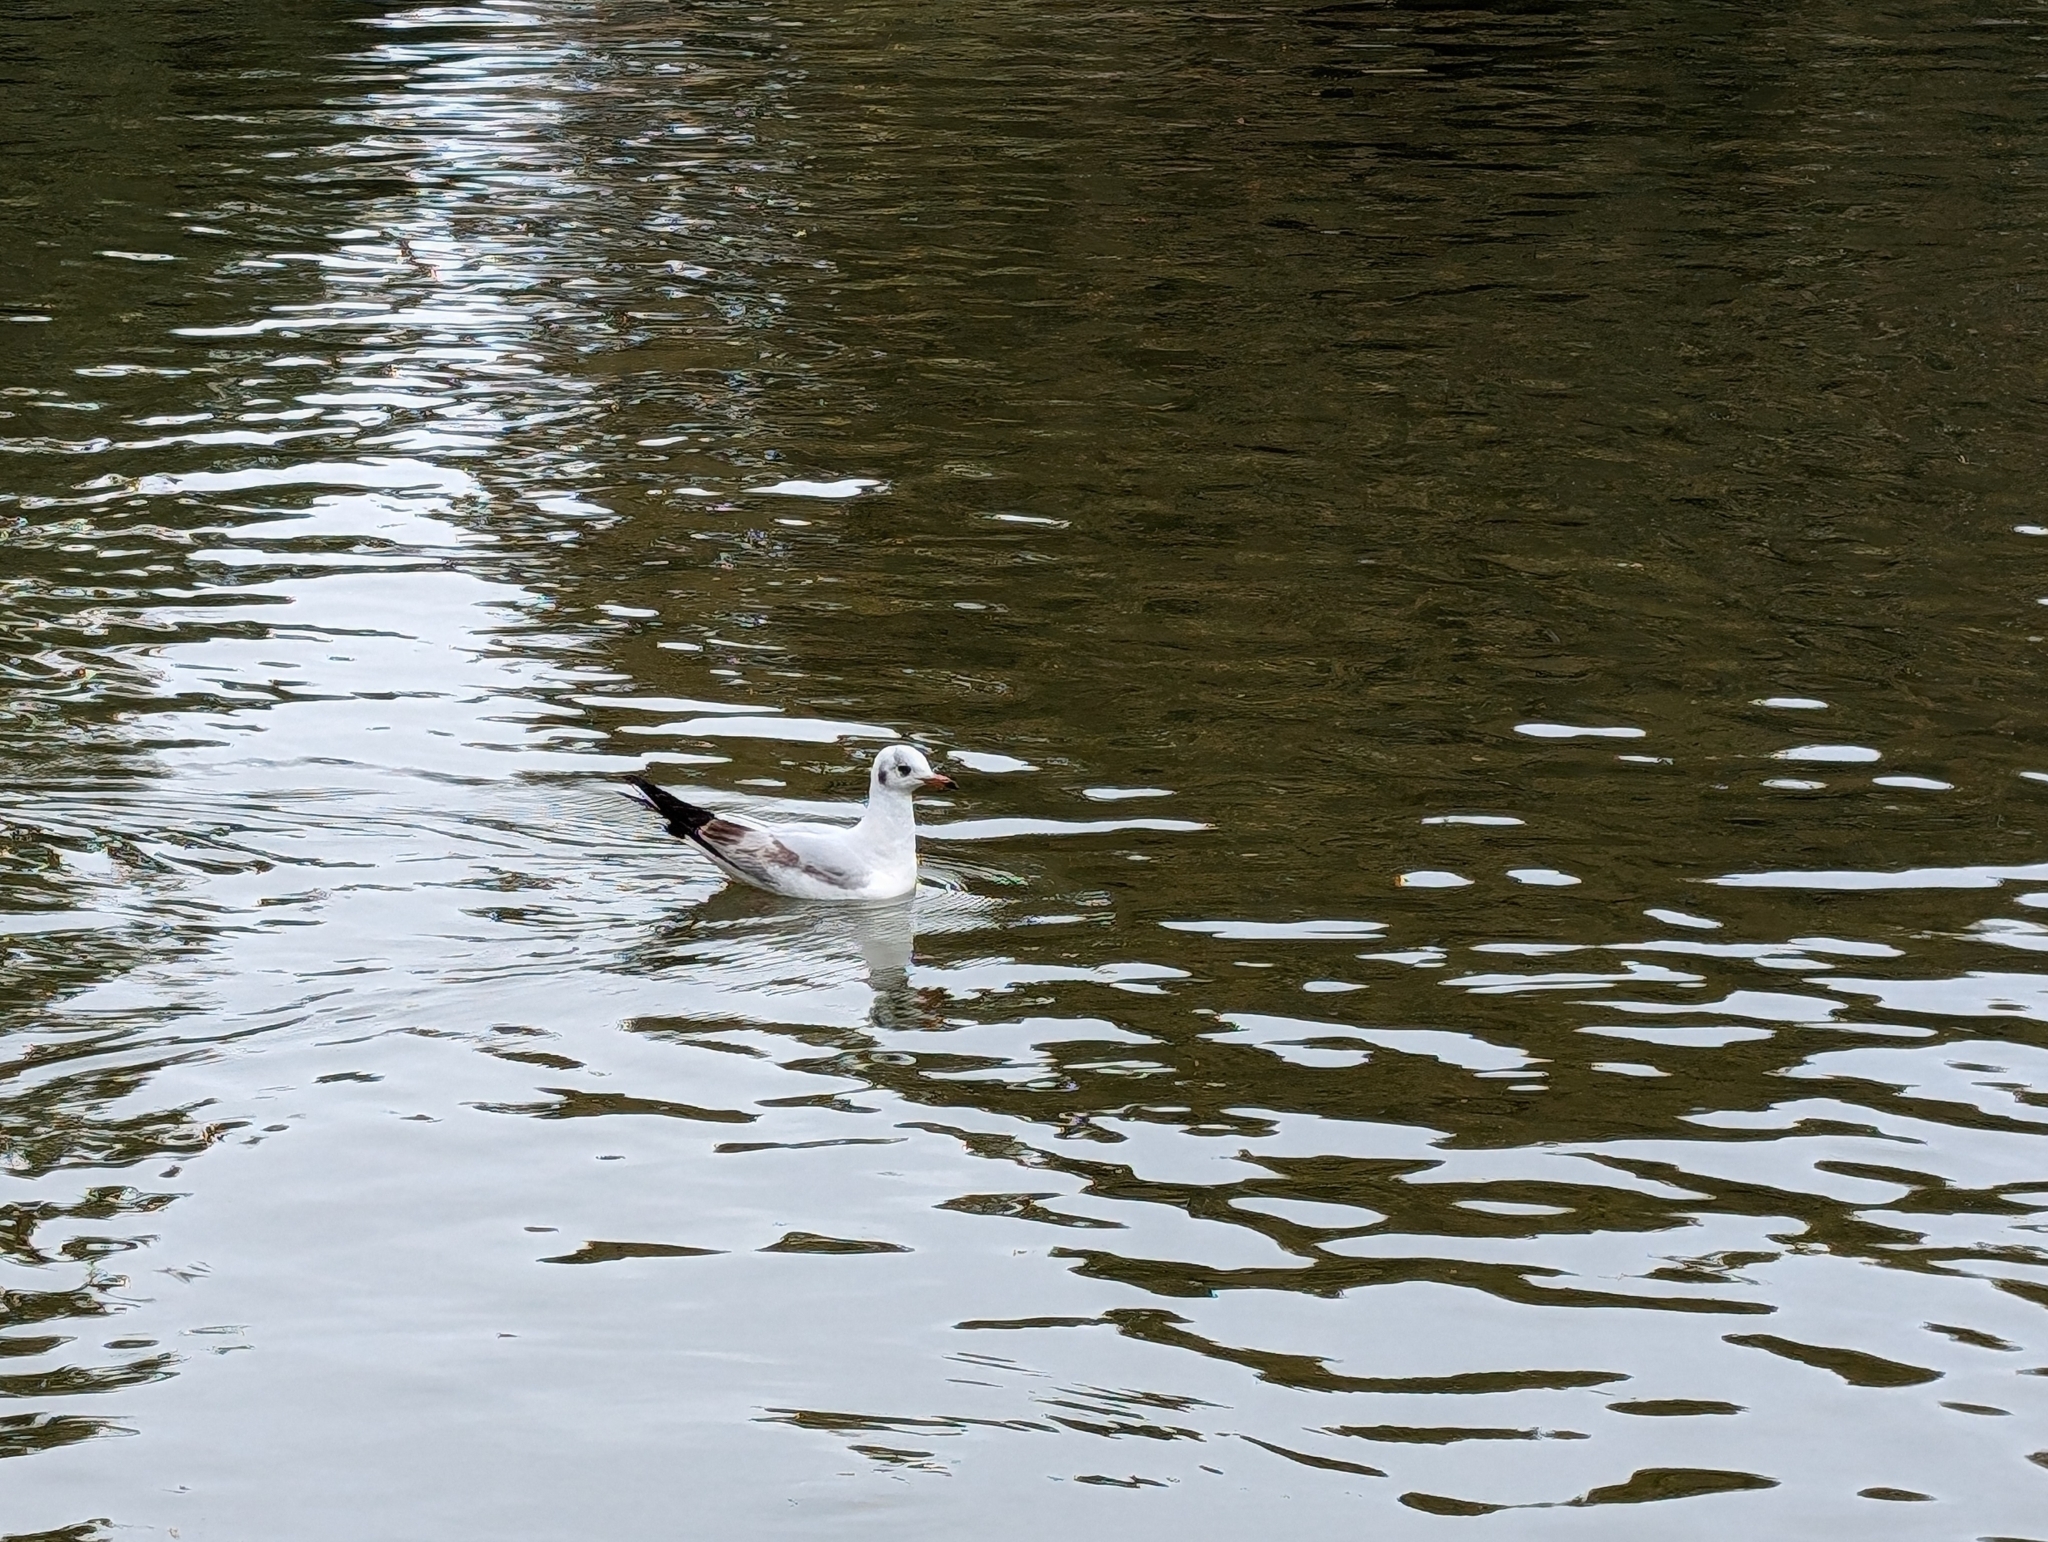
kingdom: Animalia
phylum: Chordata
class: Aves
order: Charadriiformes
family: Laridae
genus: Chroicocephalus
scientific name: Chroicocephalus ridibundus
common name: Black-headed gull
